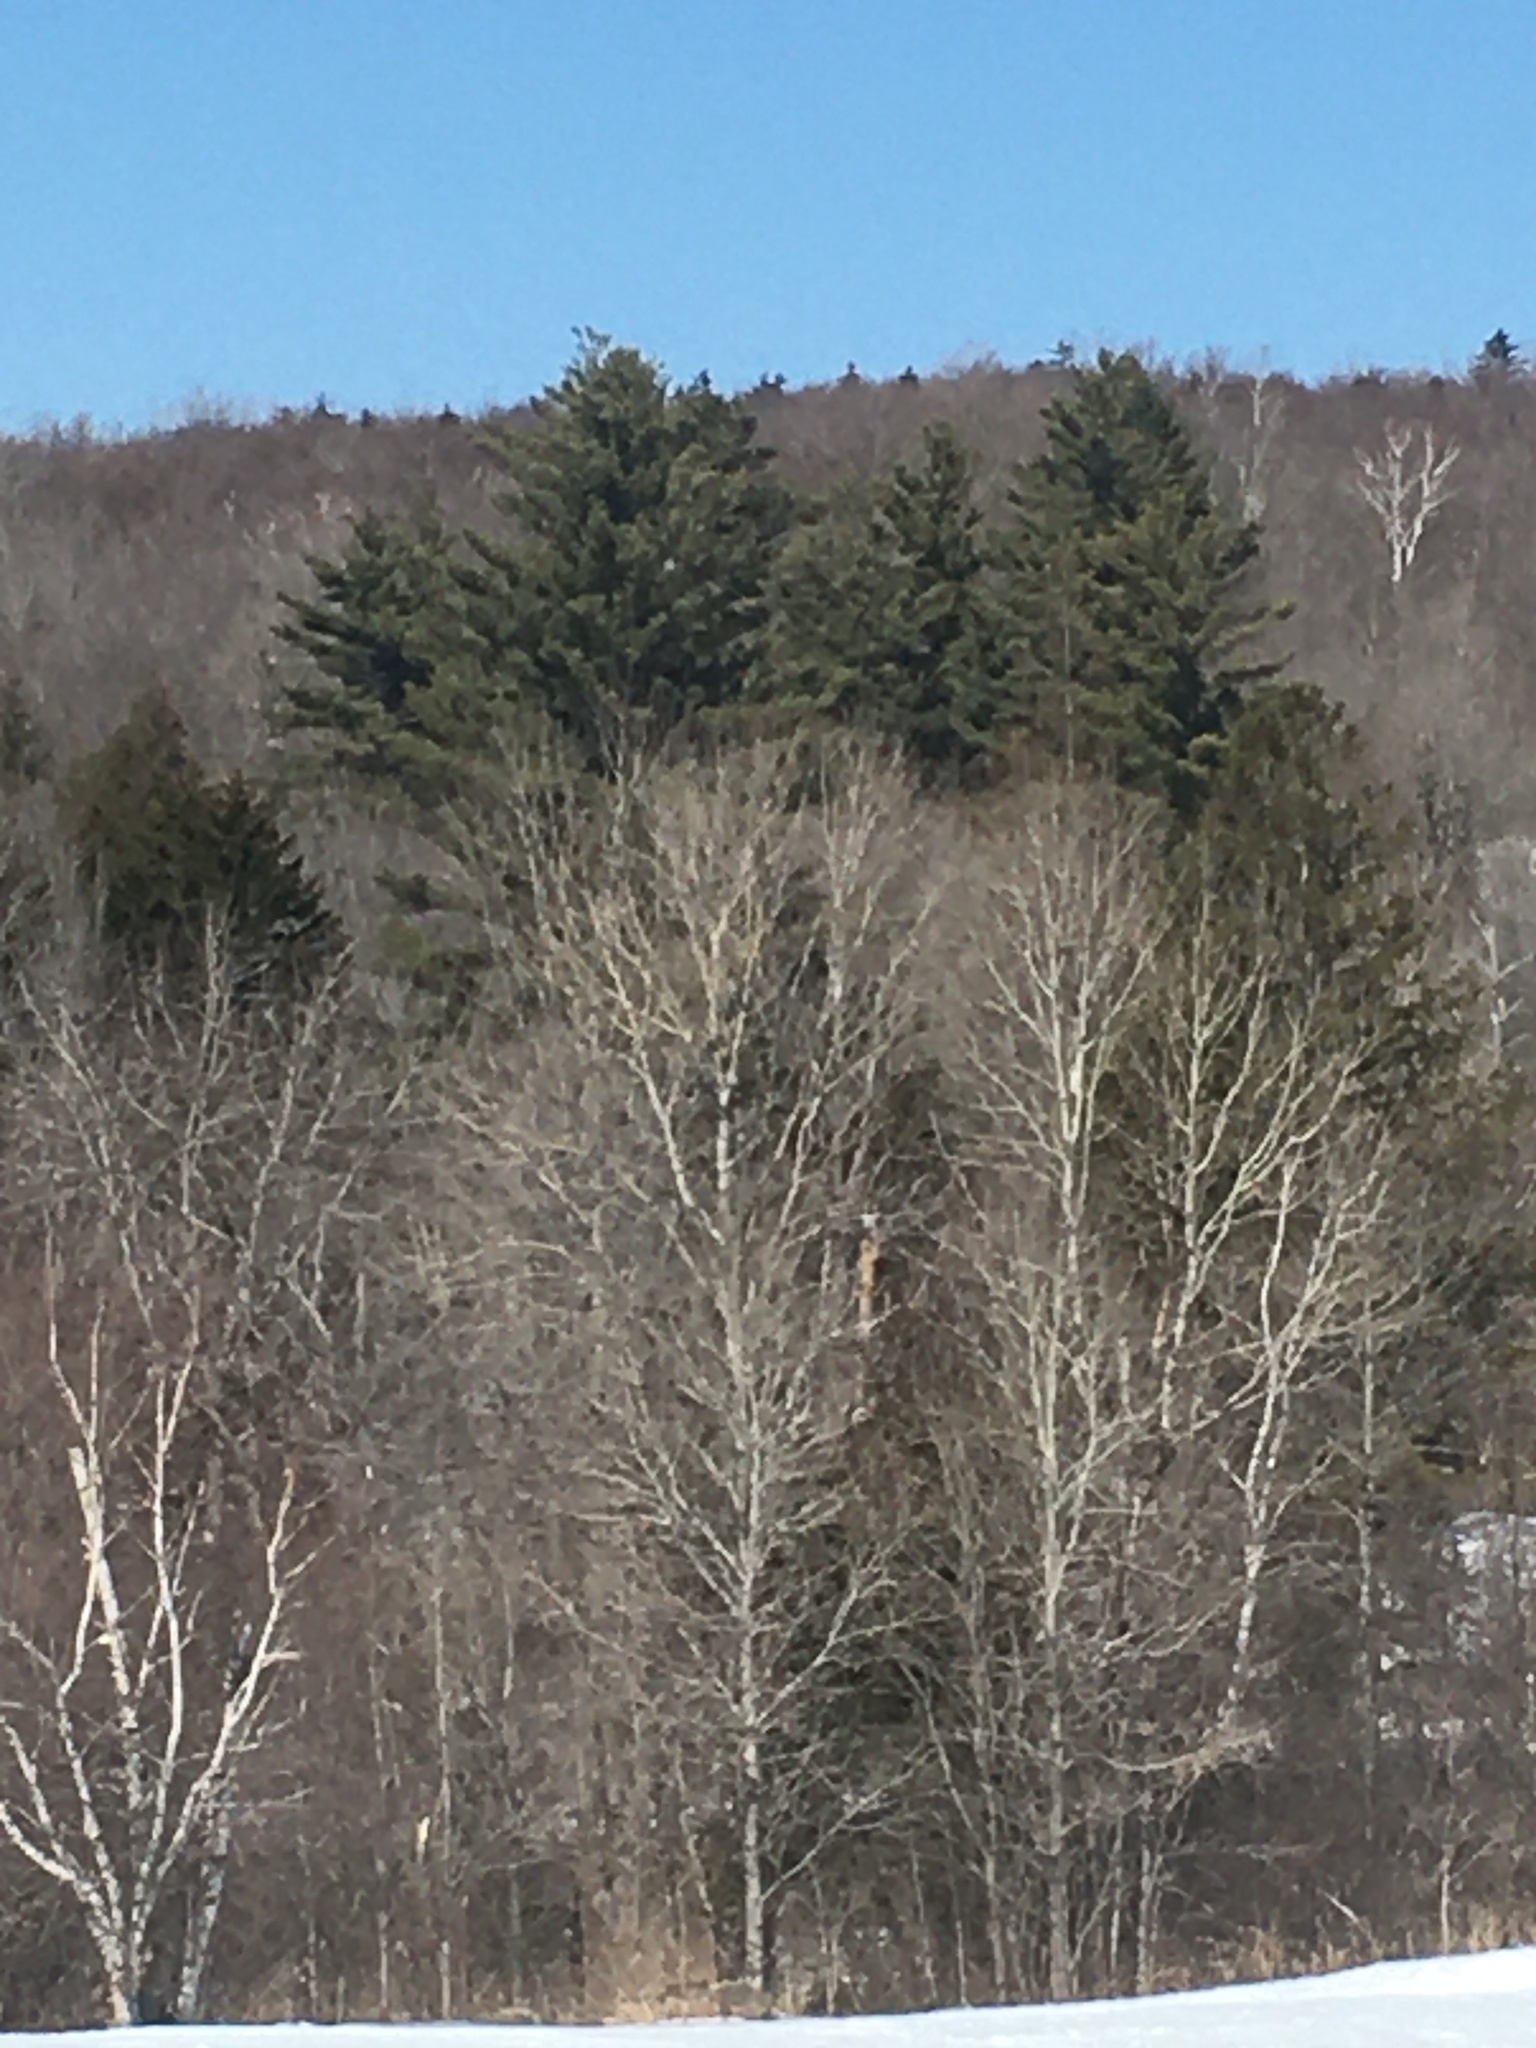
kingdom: Plantae
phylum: Tracheophyta
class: Pinopsida
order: Pinales
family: Pinaceae
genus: Pinus
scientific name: Pinus strobus
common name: Weymouth pine
